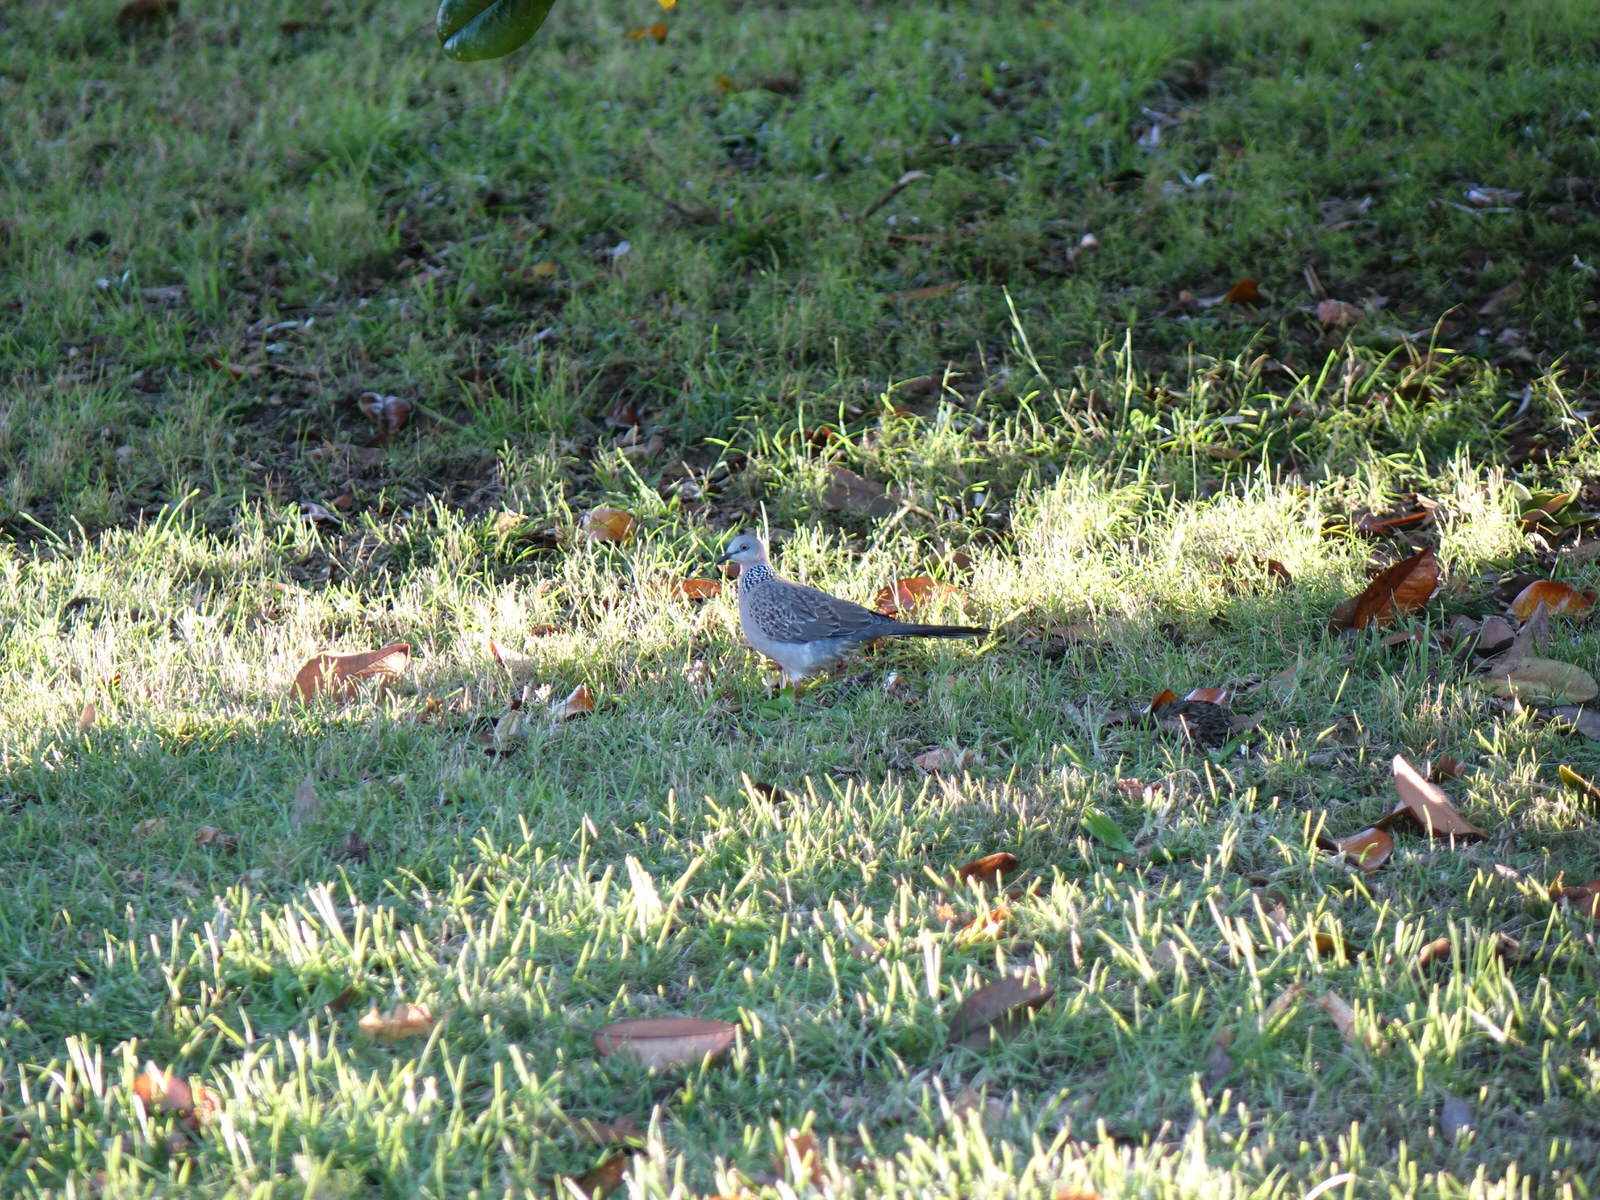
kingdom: Animalia
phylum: Chordata
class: Aves
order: Columbiformes
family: Columbidae
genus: Spilopelia
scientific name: Spilopelia chinensis
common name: Spotted dove
